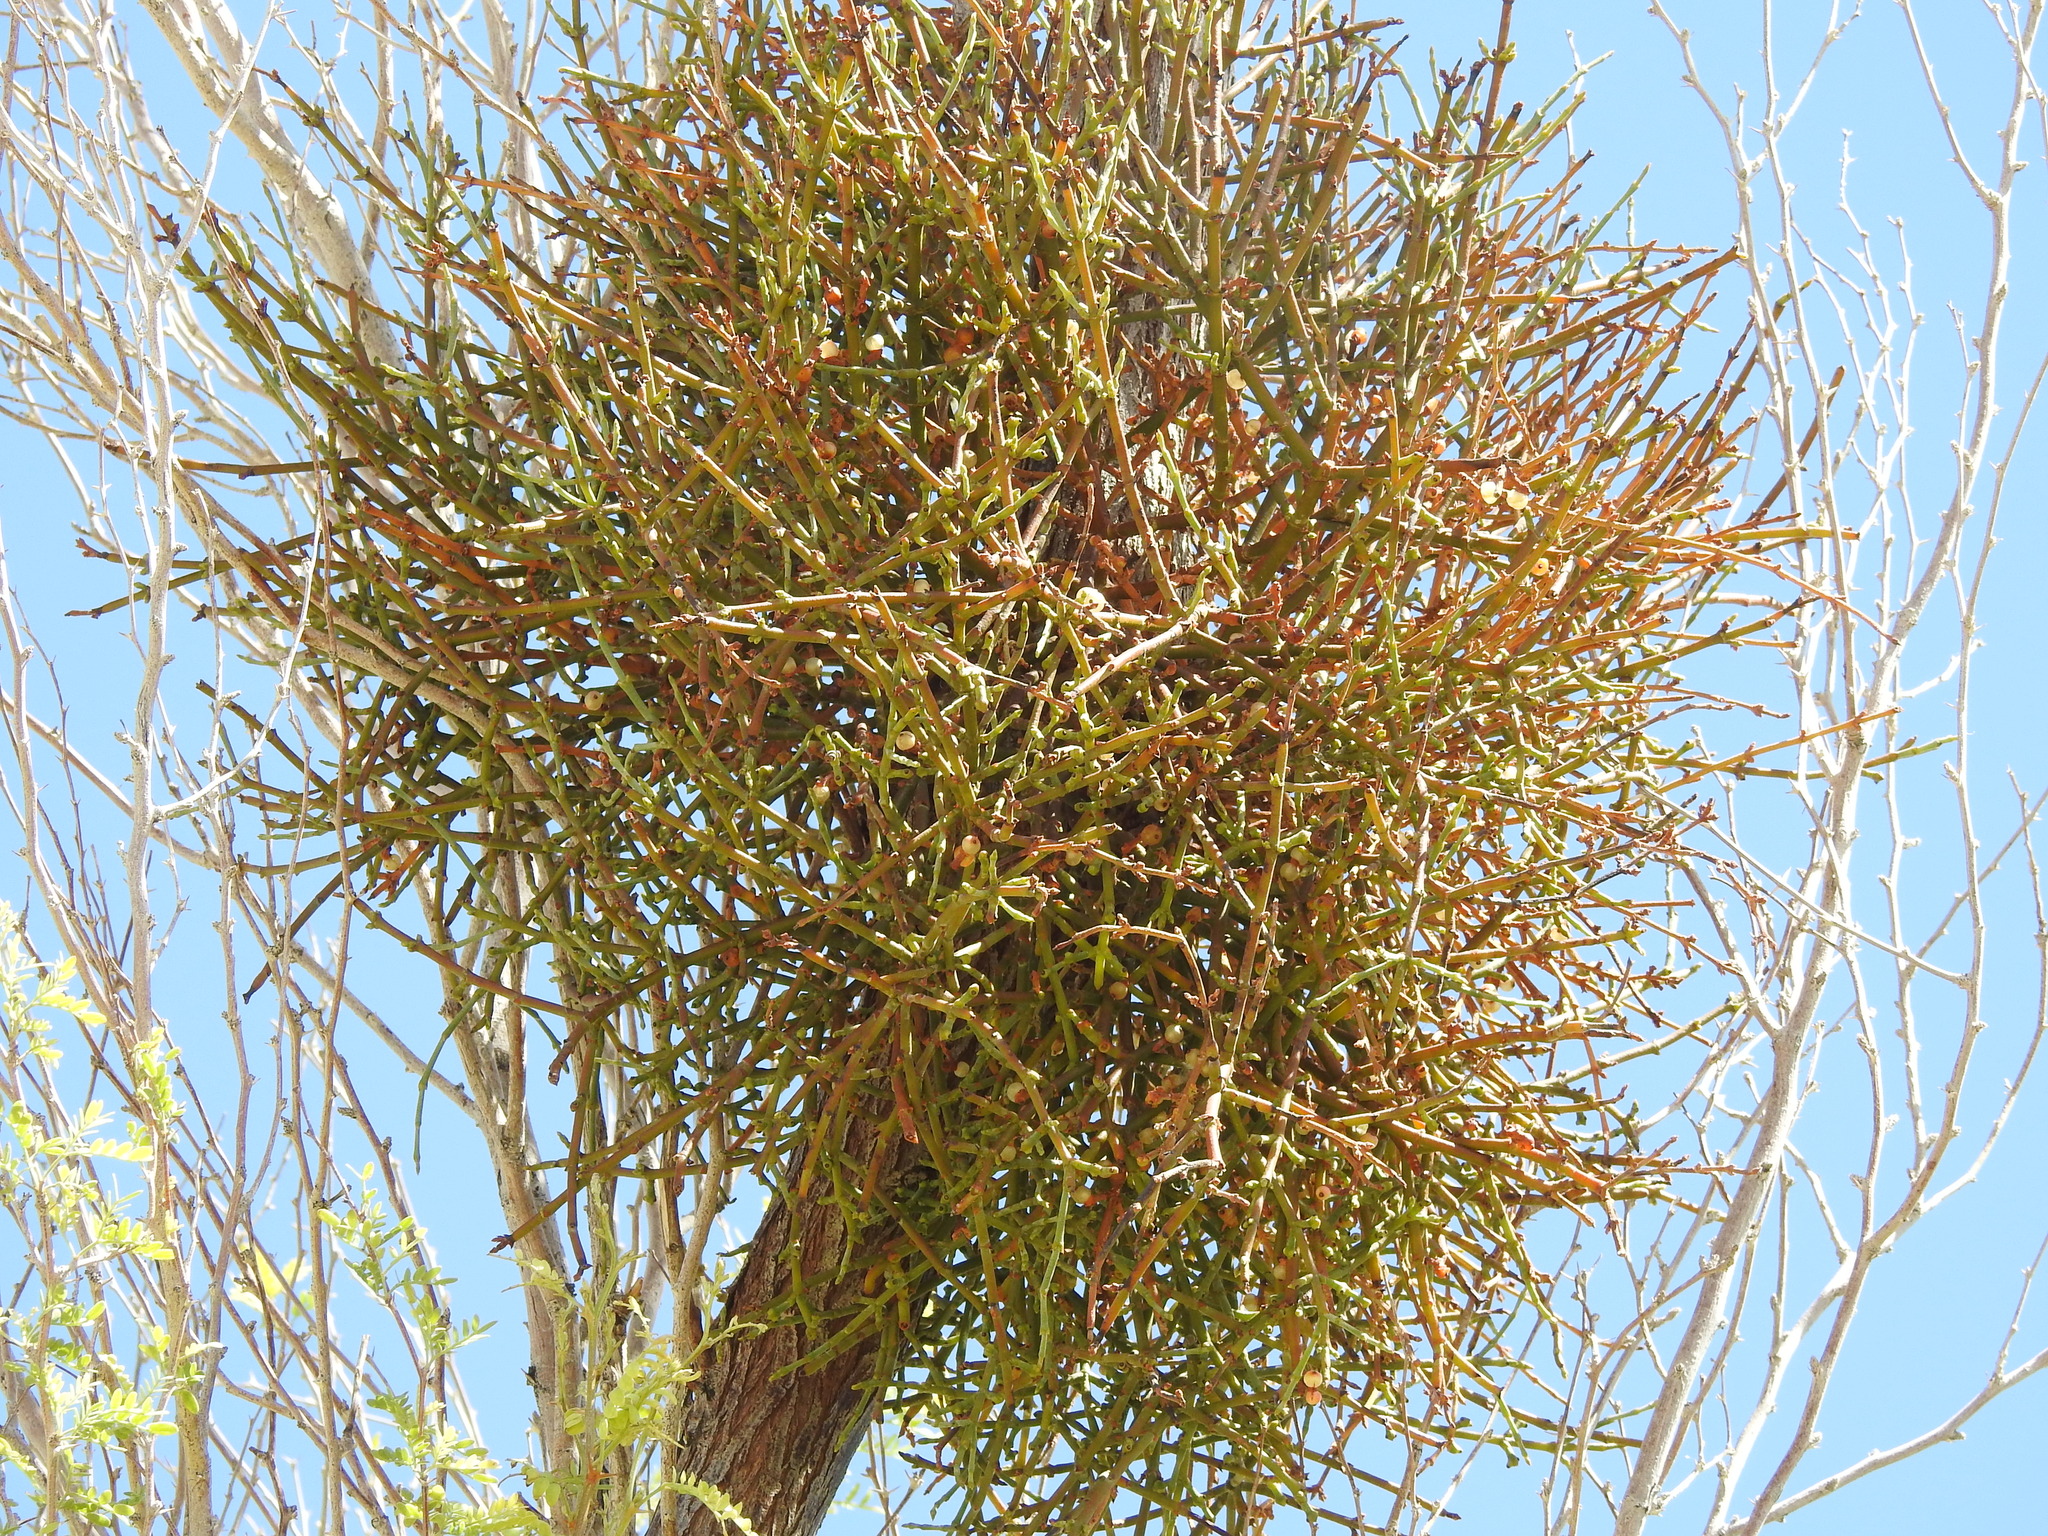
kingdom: Plantae
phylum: Tracheophyta
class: Magnoliopsida
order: Santalales
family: Viscaceae
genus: Phoradendron
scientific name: Phoradendron californicum
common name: Acacia mistletoe
